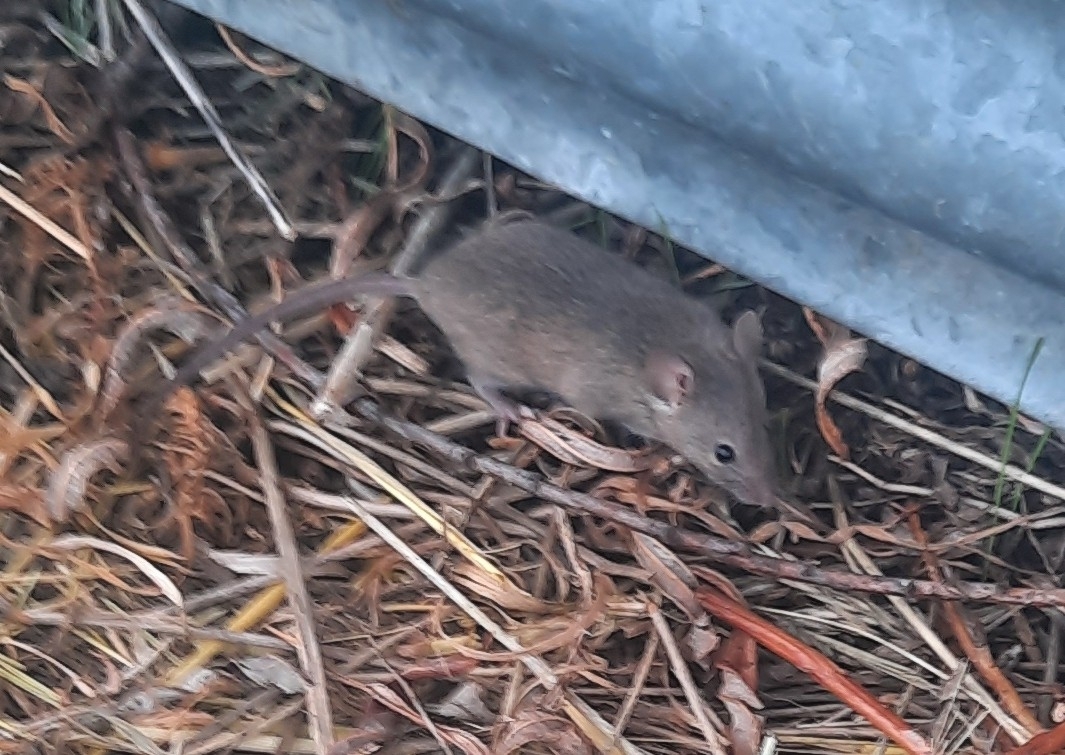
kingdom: Animalia
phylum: Chordata
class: Mammalia
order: Rodentia
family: Muridae
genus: Mus
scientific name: Mus musculus
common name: House mouse
